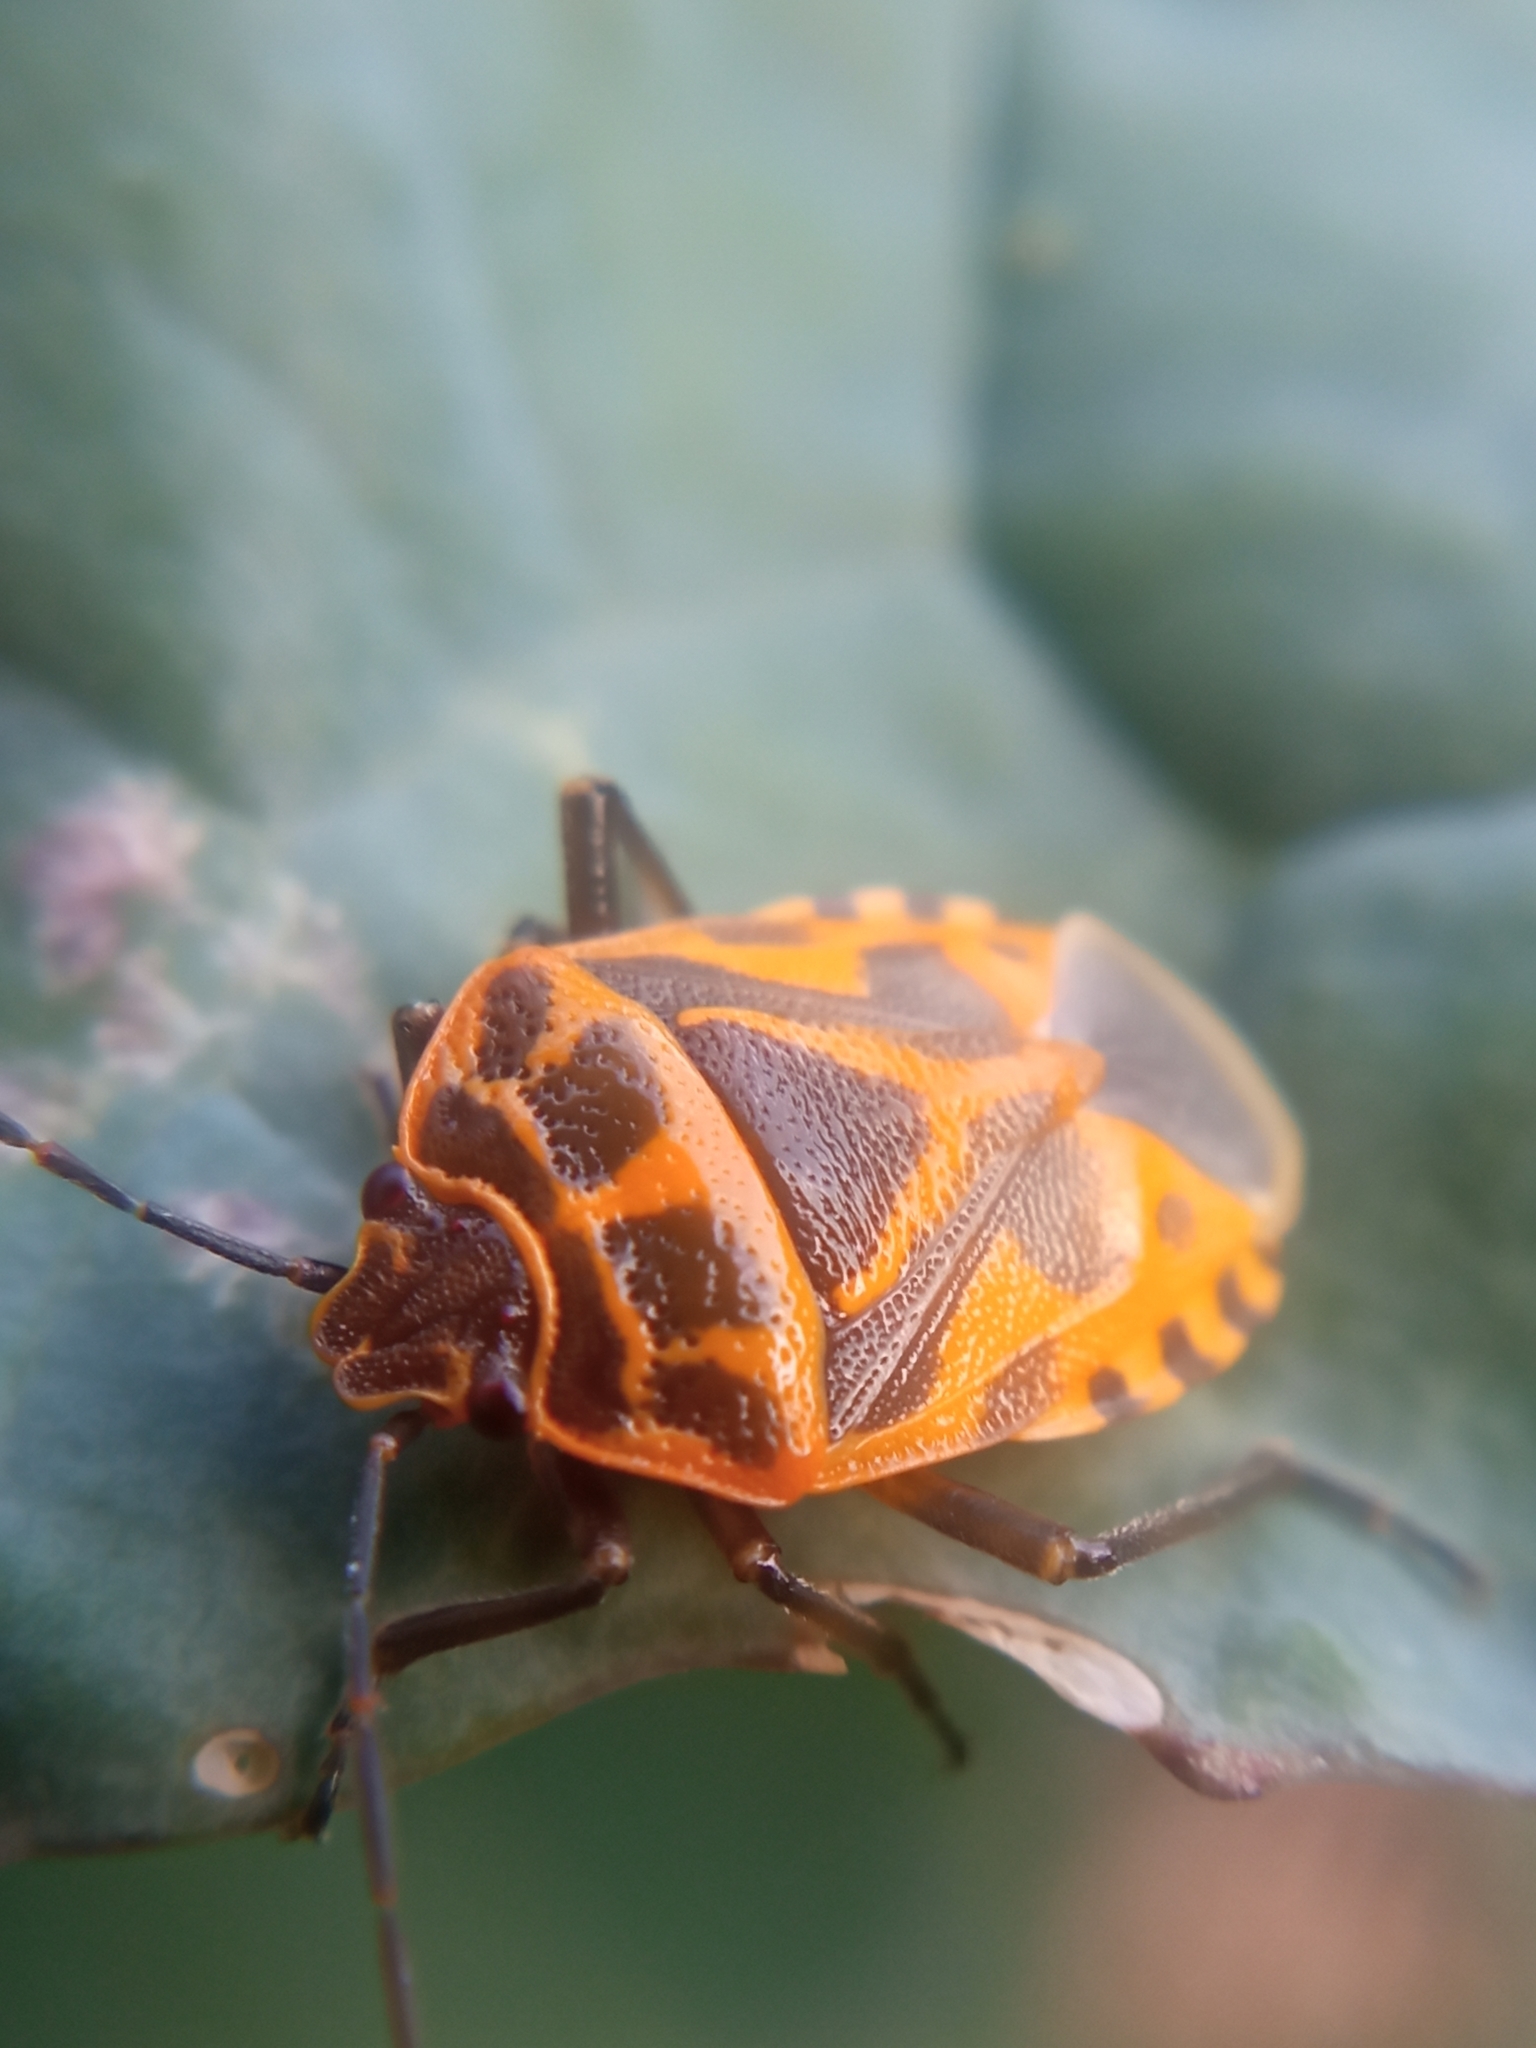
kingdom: Animalia
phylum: Arthropoda
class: Insecta
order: Hemiptera
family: Pentatomidae
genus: Eurydema
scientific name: Eurydema ventralis
